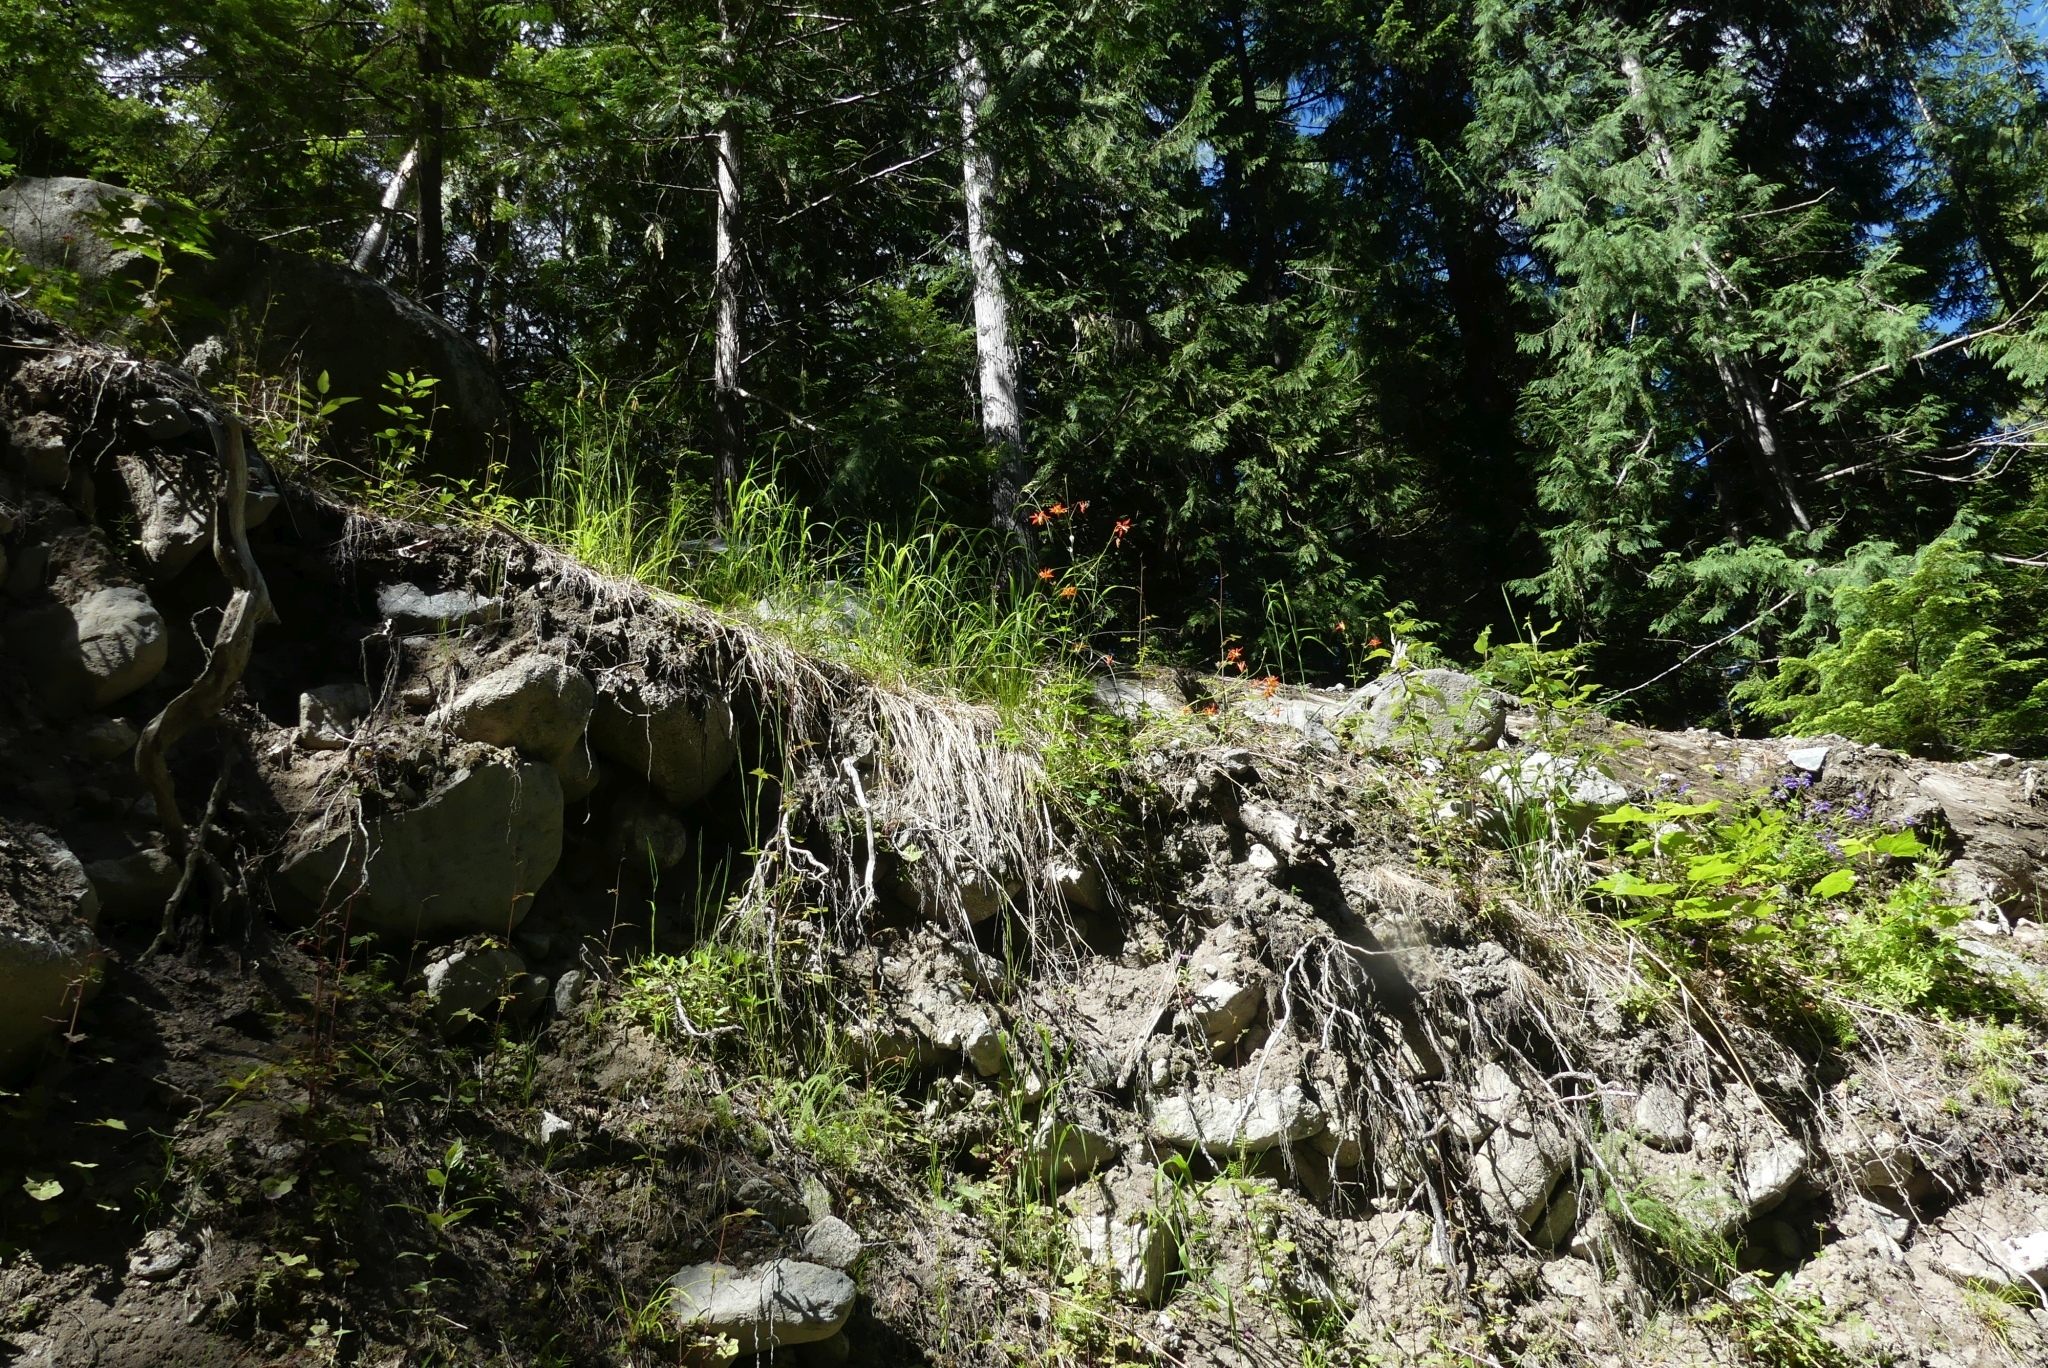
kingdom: Plantae
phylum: Tracheophyta
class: Magnoliopsida
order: Ranunculales
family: Ranunculaceae
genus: Aquilegia
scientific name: Aquilegia formosa
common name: Sitka columbine
